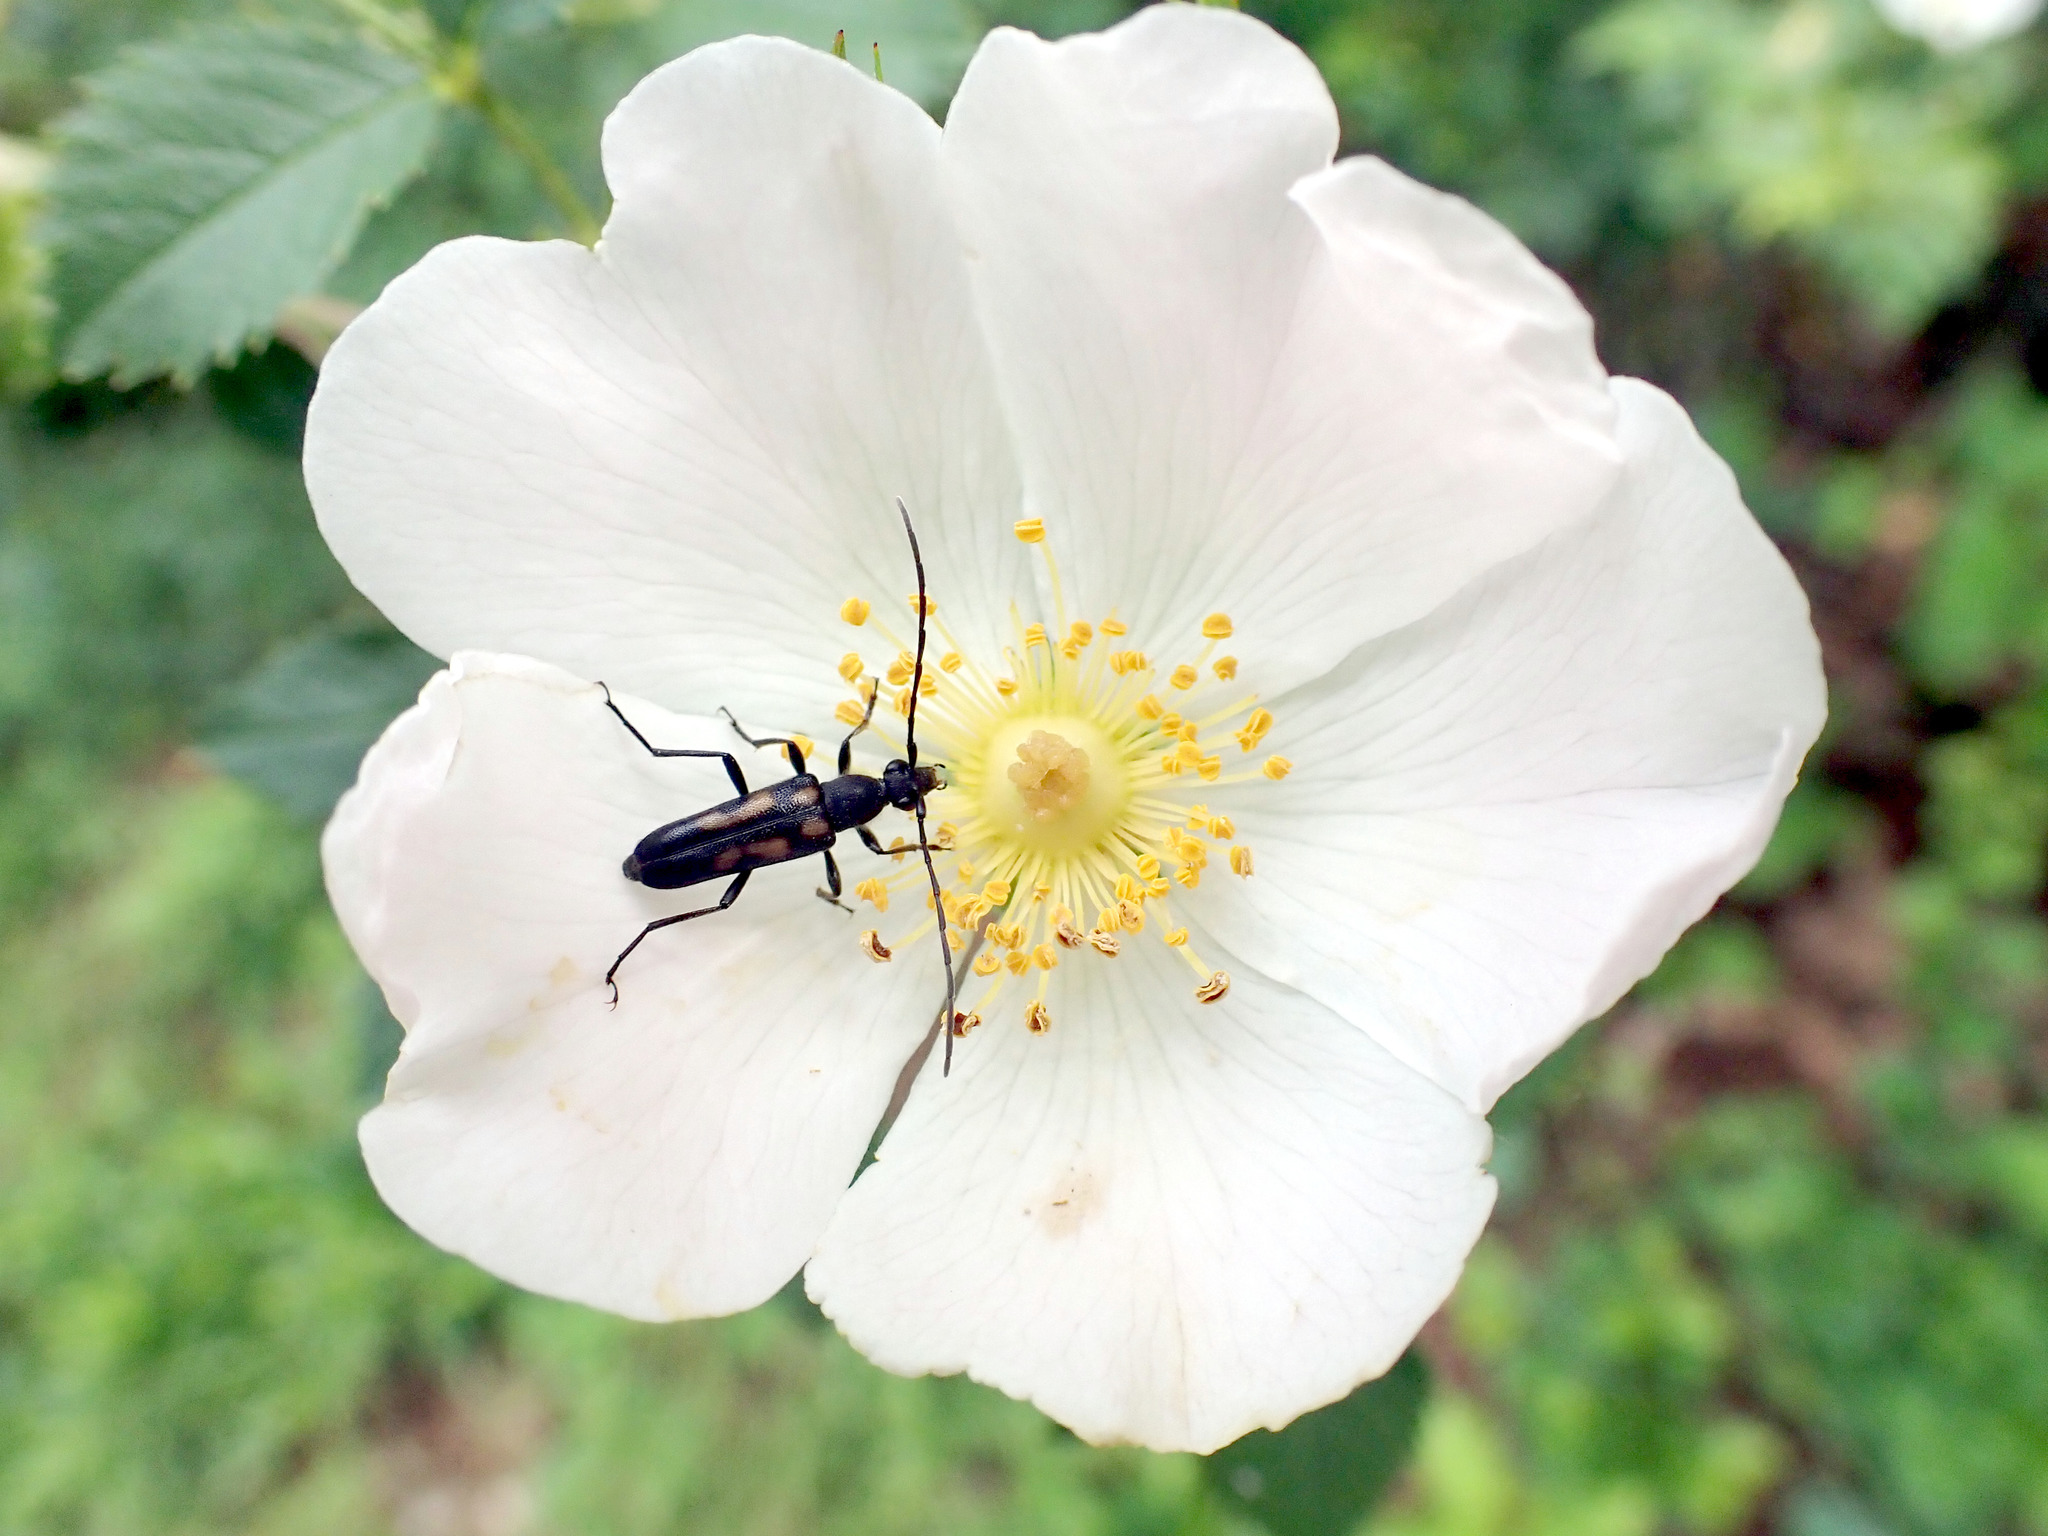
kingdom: Animalia
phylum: Arthropoda
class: Insecta
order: Coleoptera
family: Cerambycidae
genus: Anoplodera
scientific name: Anoplodera sexguttata
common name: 6 spotted longhorn
